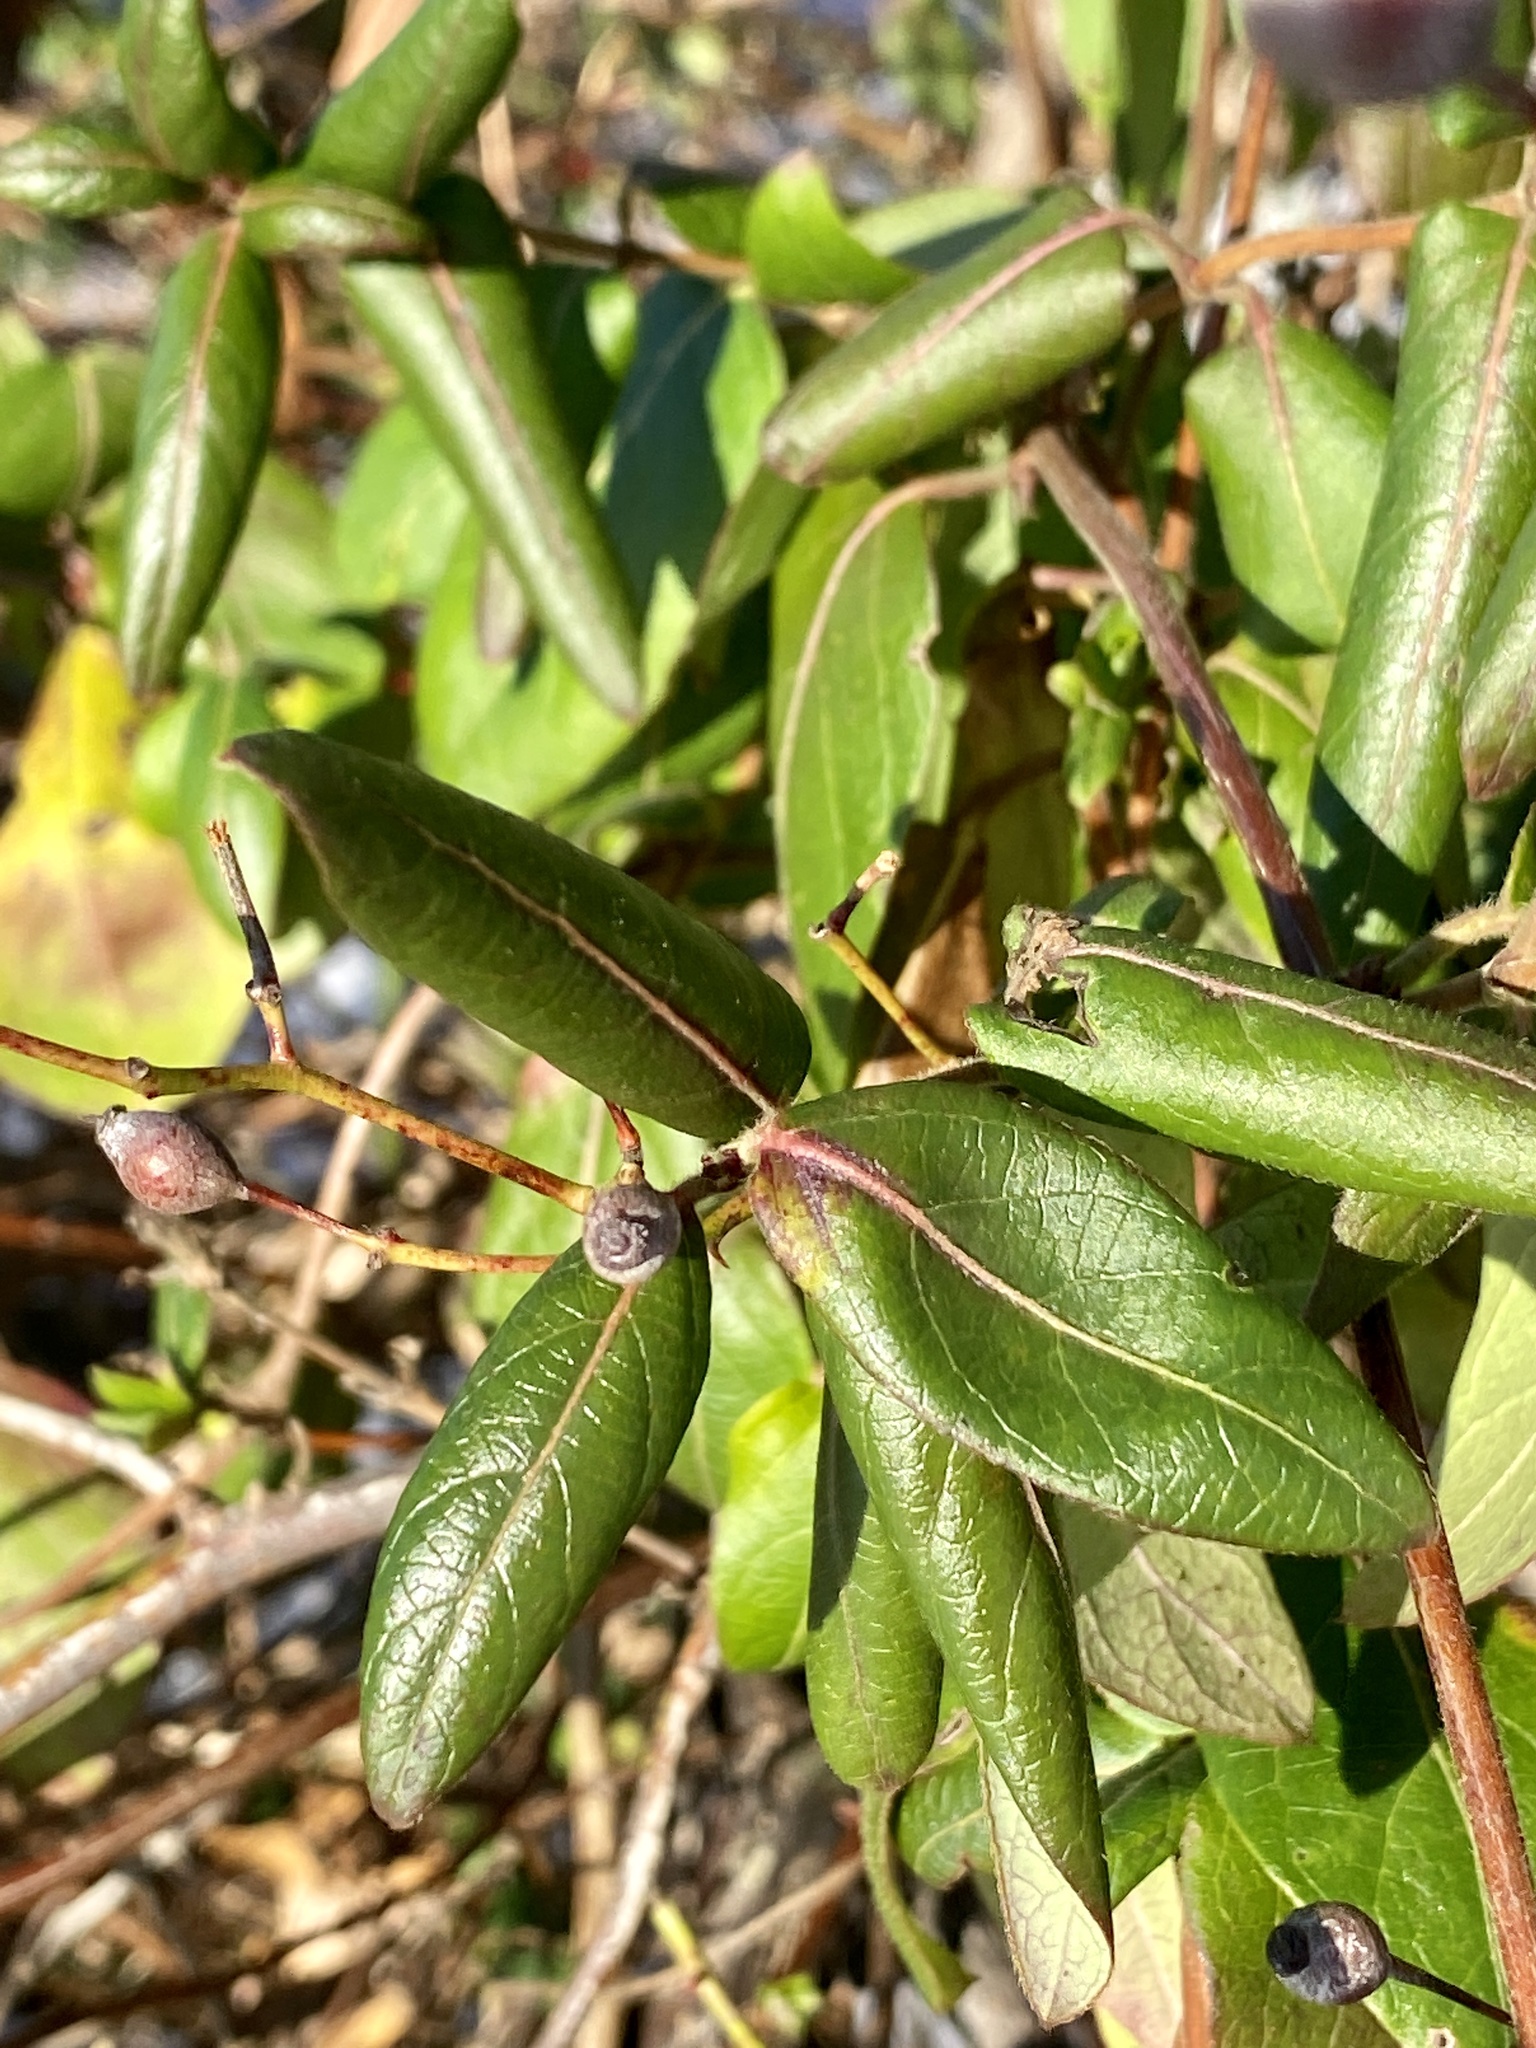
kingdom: Plantae
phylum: Tracheophyta
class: Magnoliopsida
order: Dipsacales
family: Caprifoliaceae
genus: Lonicera
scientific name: Lonicera japonica
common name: Japanese honeysuckle
